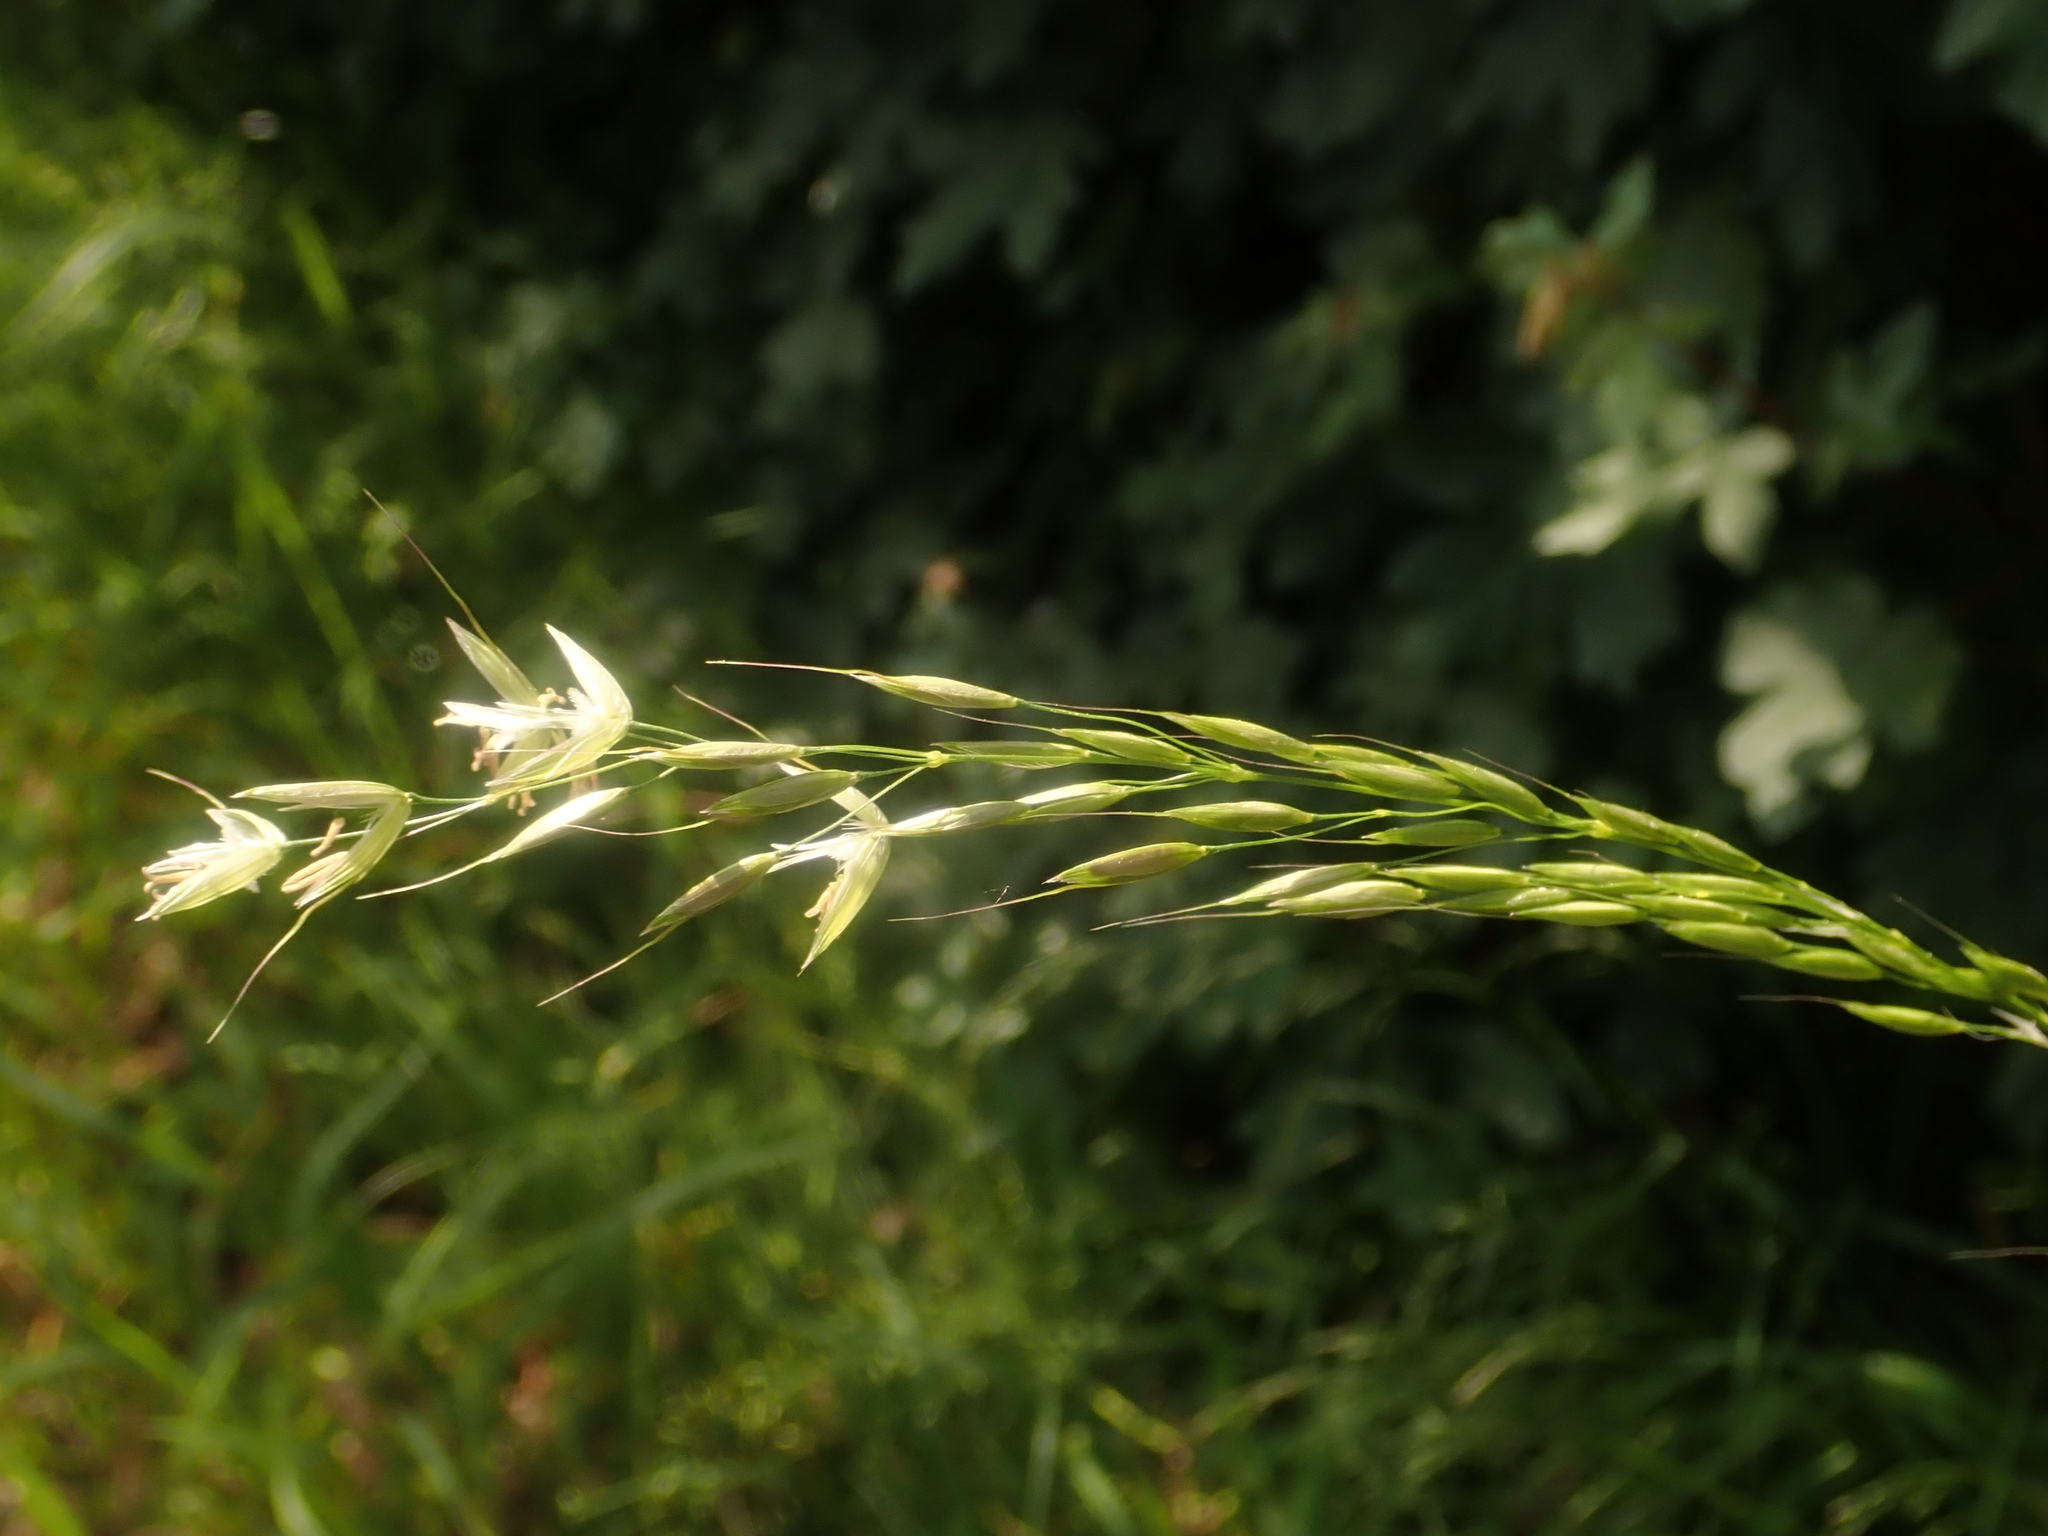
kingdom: Plantae
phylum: Tracheophyta
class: Liliopsida
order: Poales
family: Poaceae
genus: Arrhenatherum
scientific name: Arrhenatherum elatius
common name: Tall oatgrass
